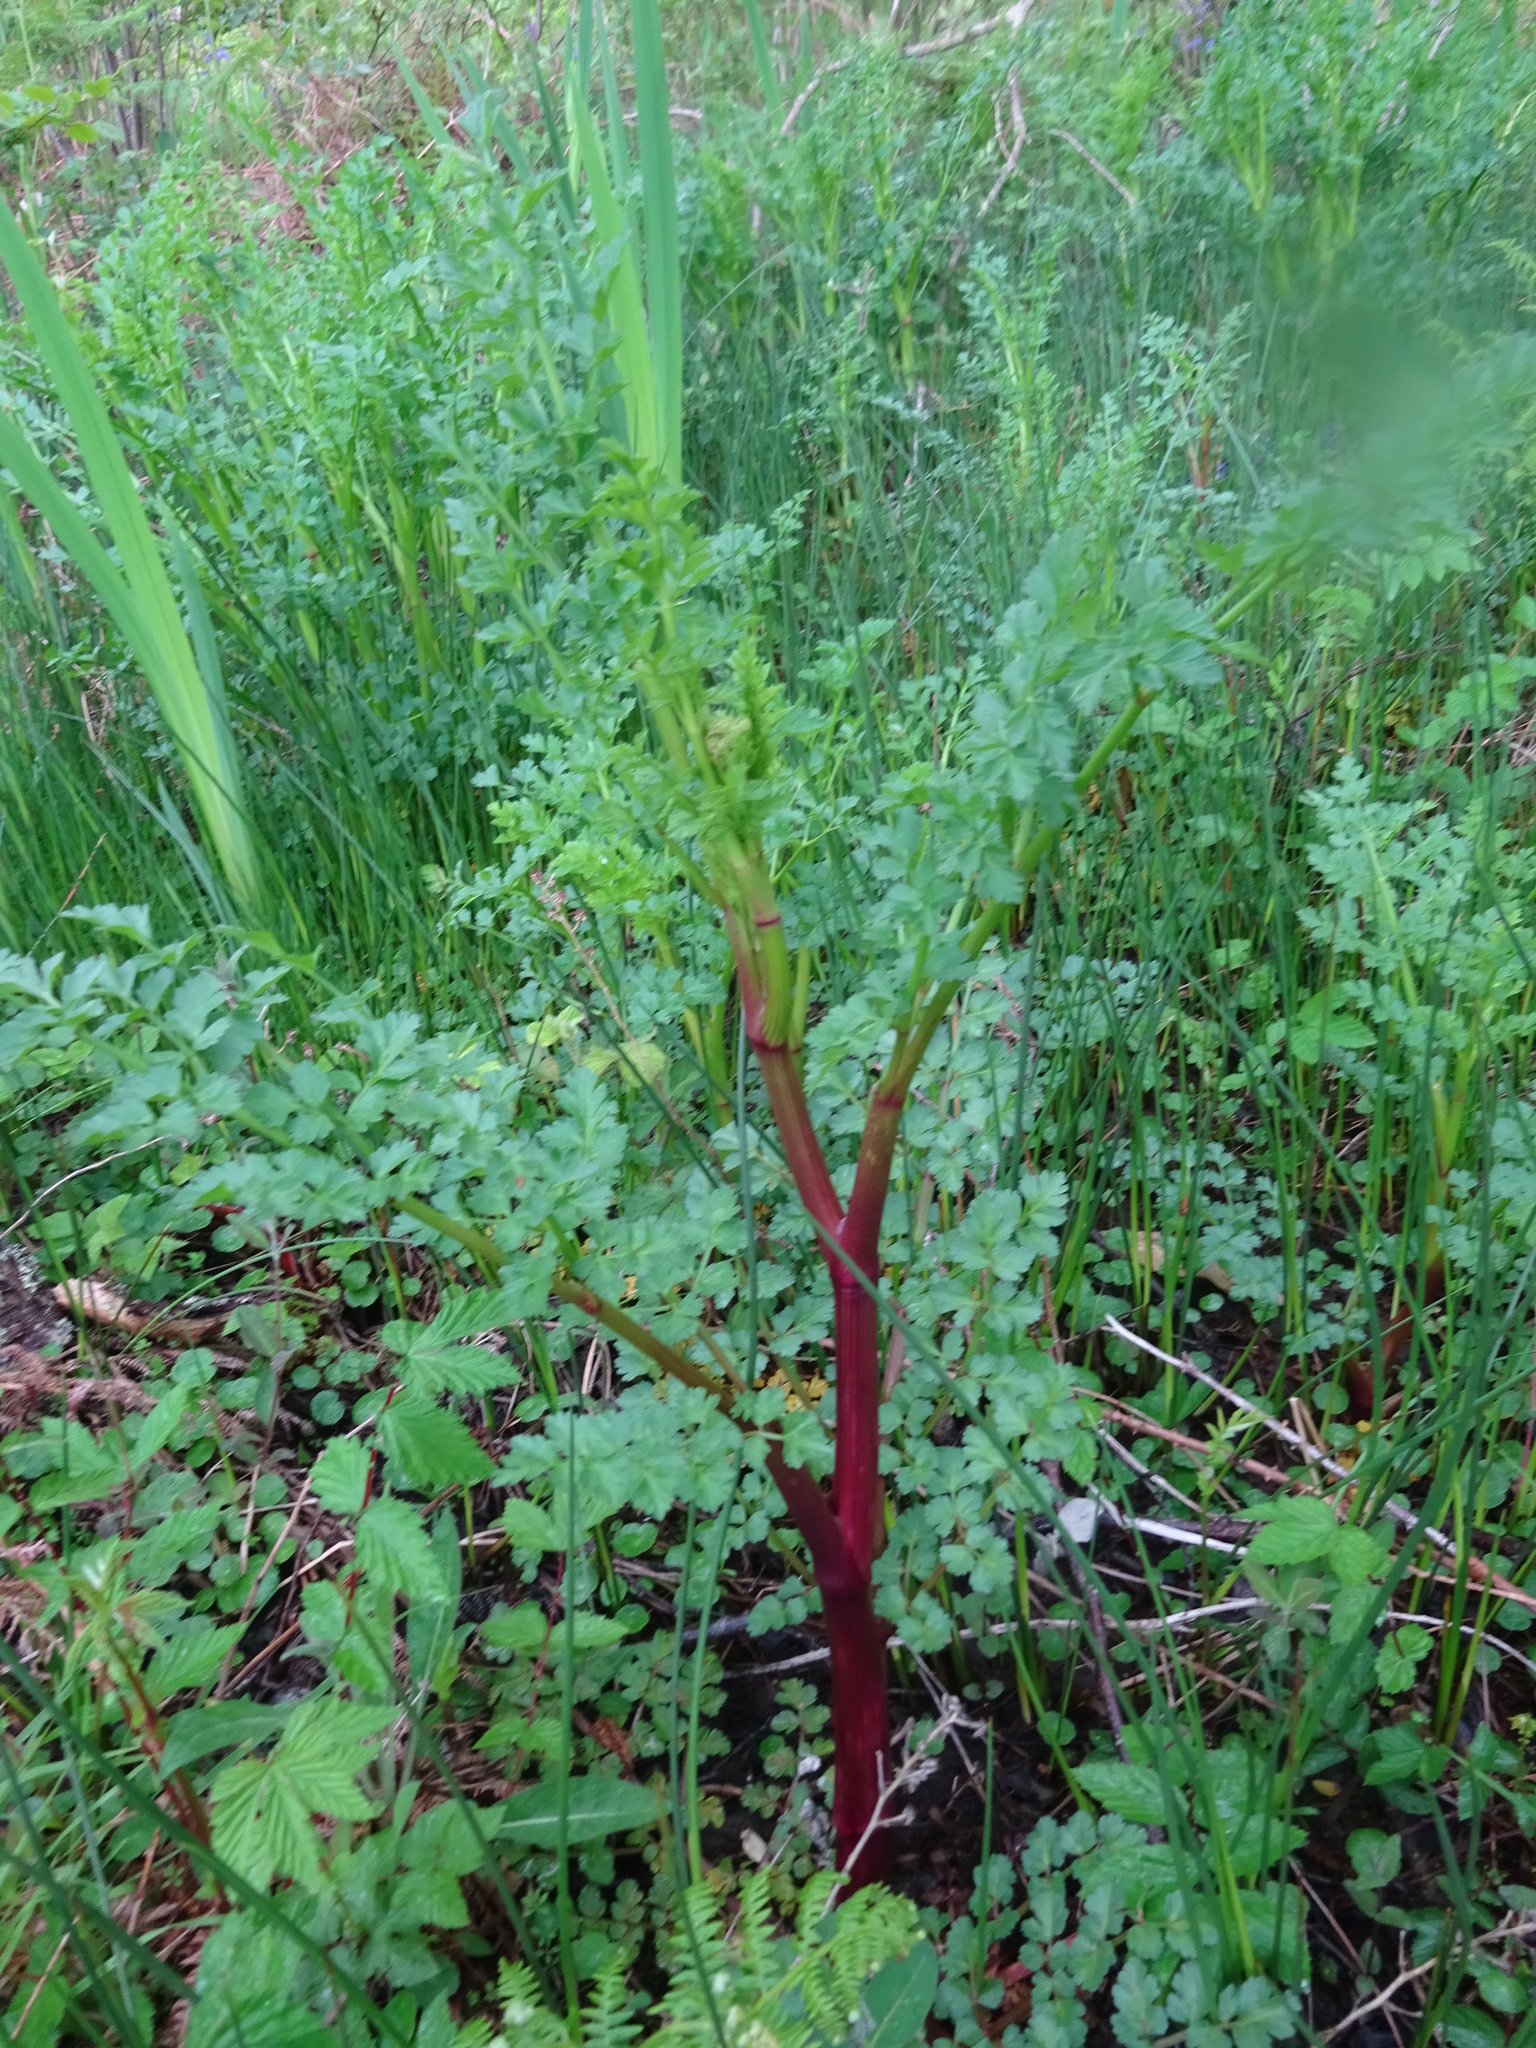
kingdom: Plantae
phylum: Tracheophyta
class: Magnoliopsida
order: Apiales
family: Apiaceae
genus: Oenanthe
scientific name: Oenanthe crocata
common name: Hemlock water-dropwort
